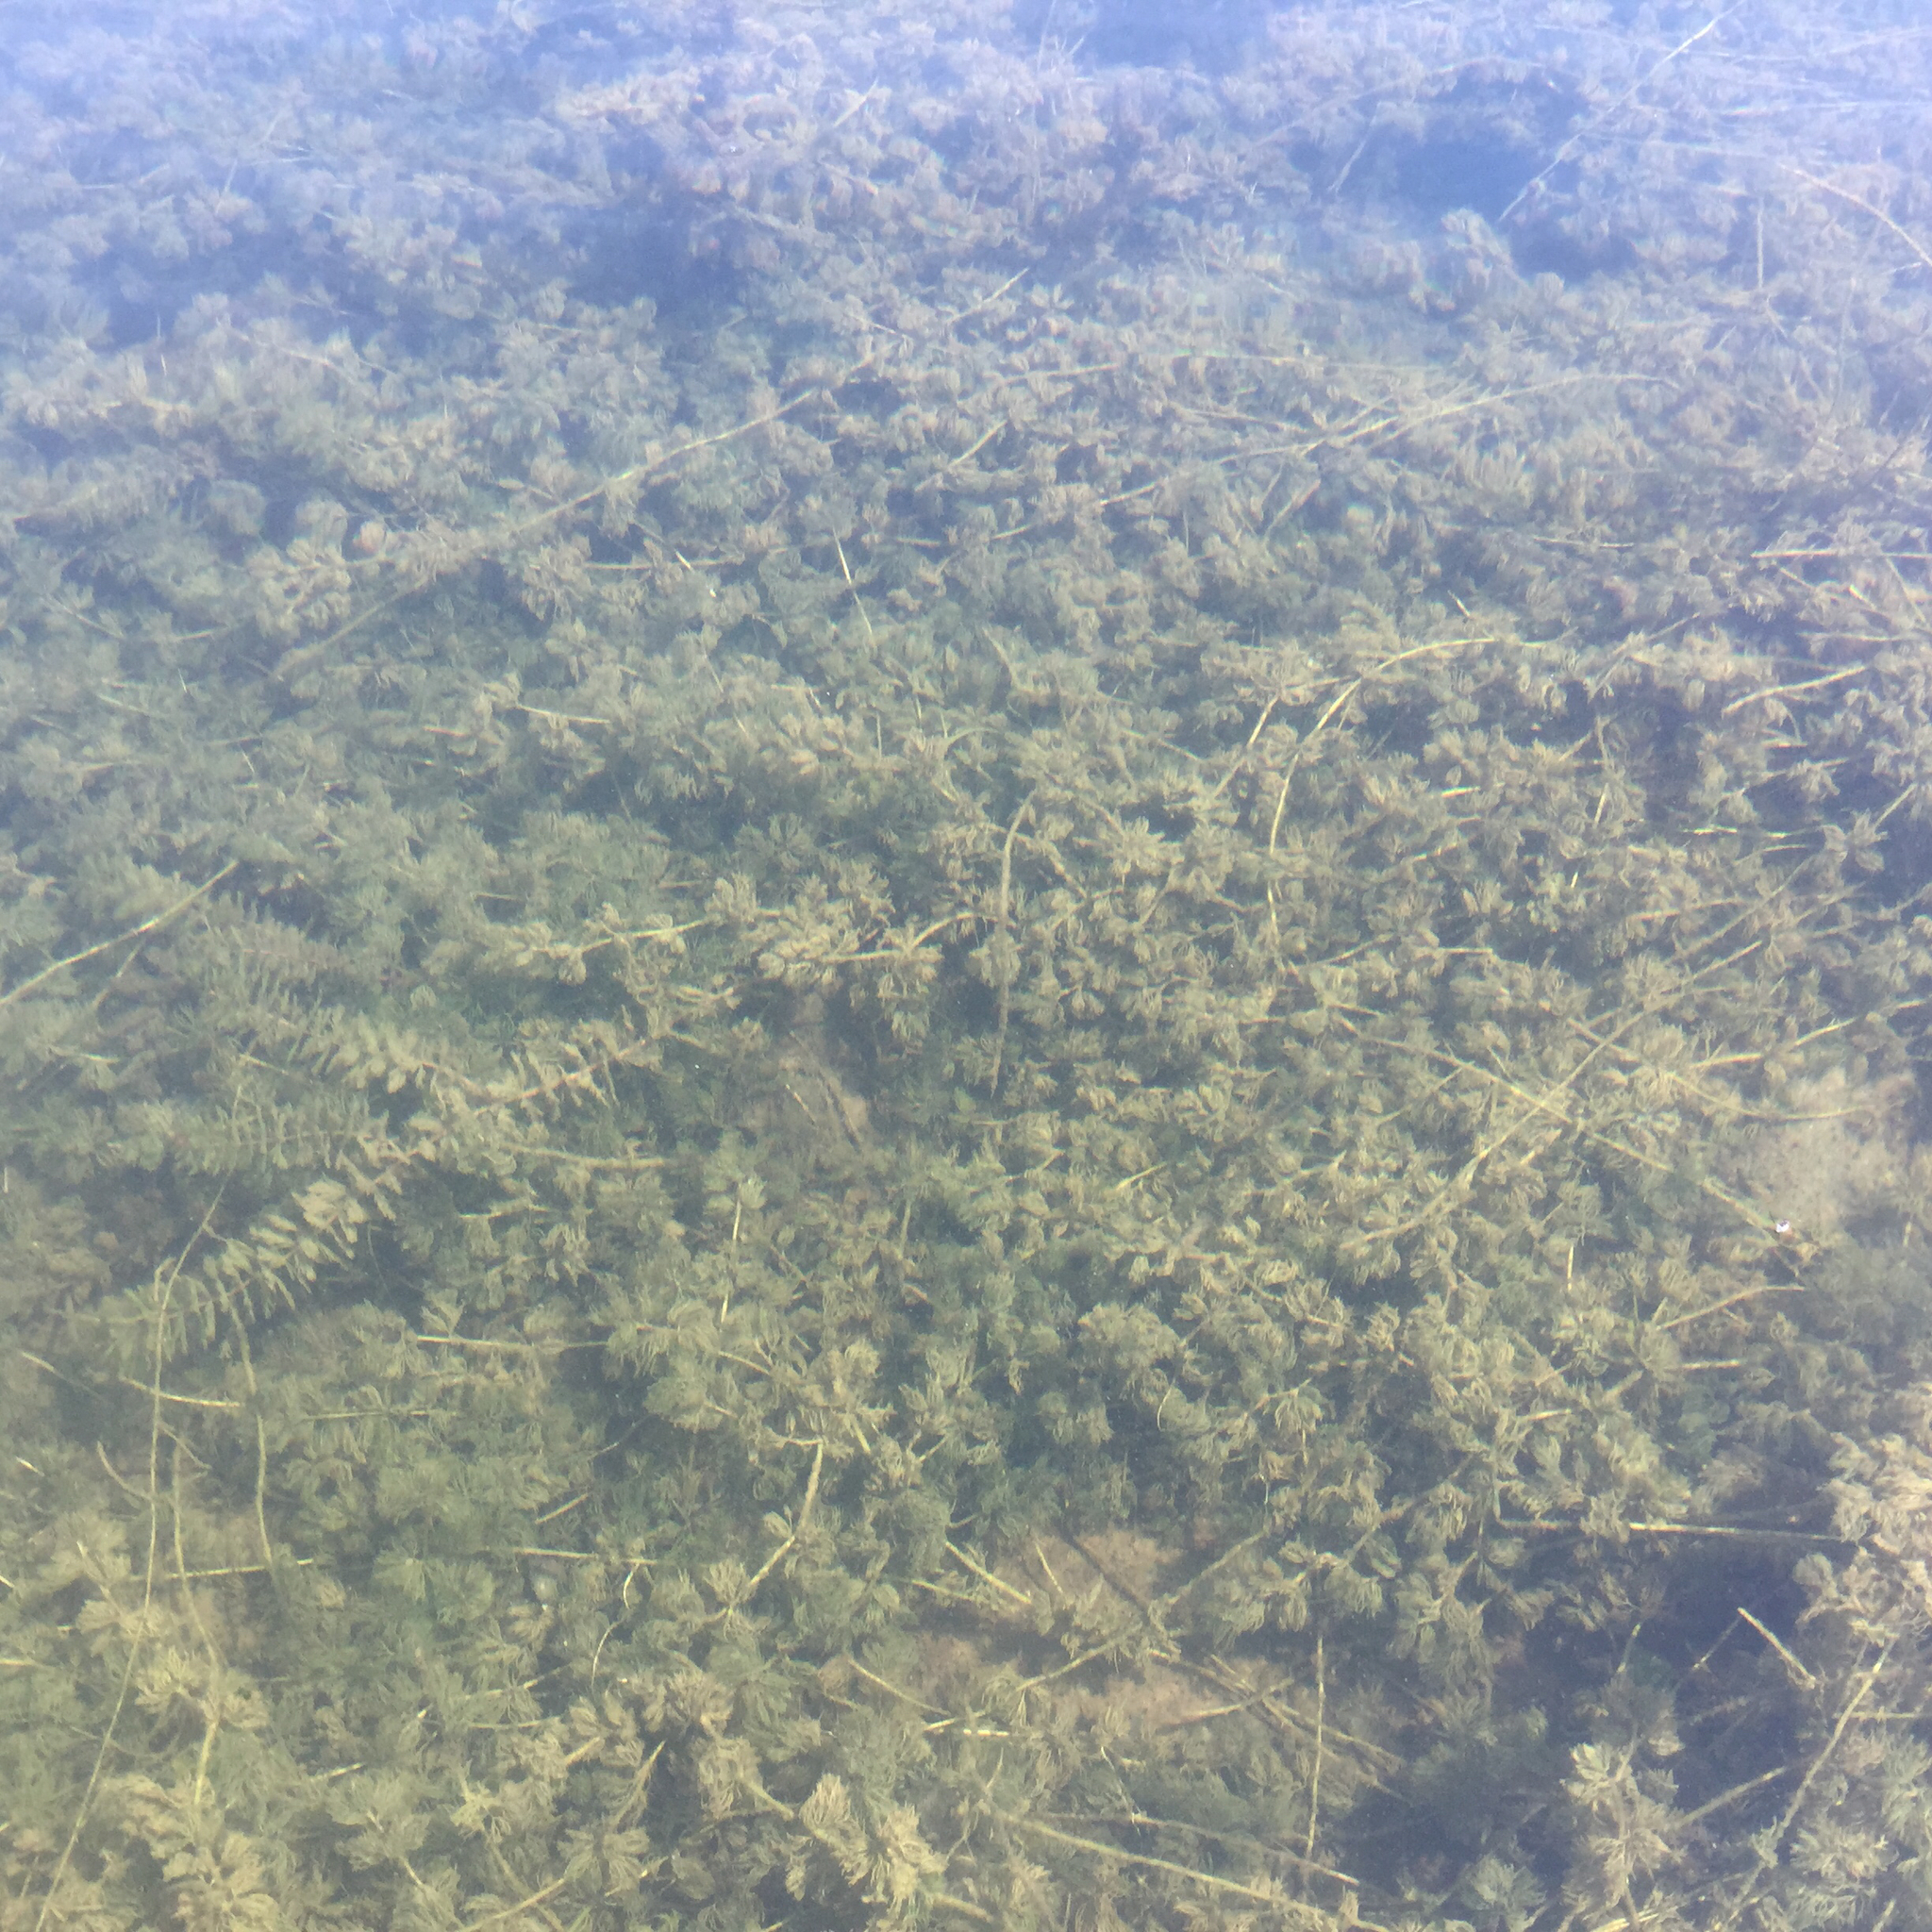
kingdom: Plantae
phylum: Tracheophyta
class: Magnoliopsida
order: Ranunculales
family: Ranunculaceae
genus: Ranunculus
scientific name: Ranunculus trichophyllus
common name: Thread-leaved water-crowfoot
